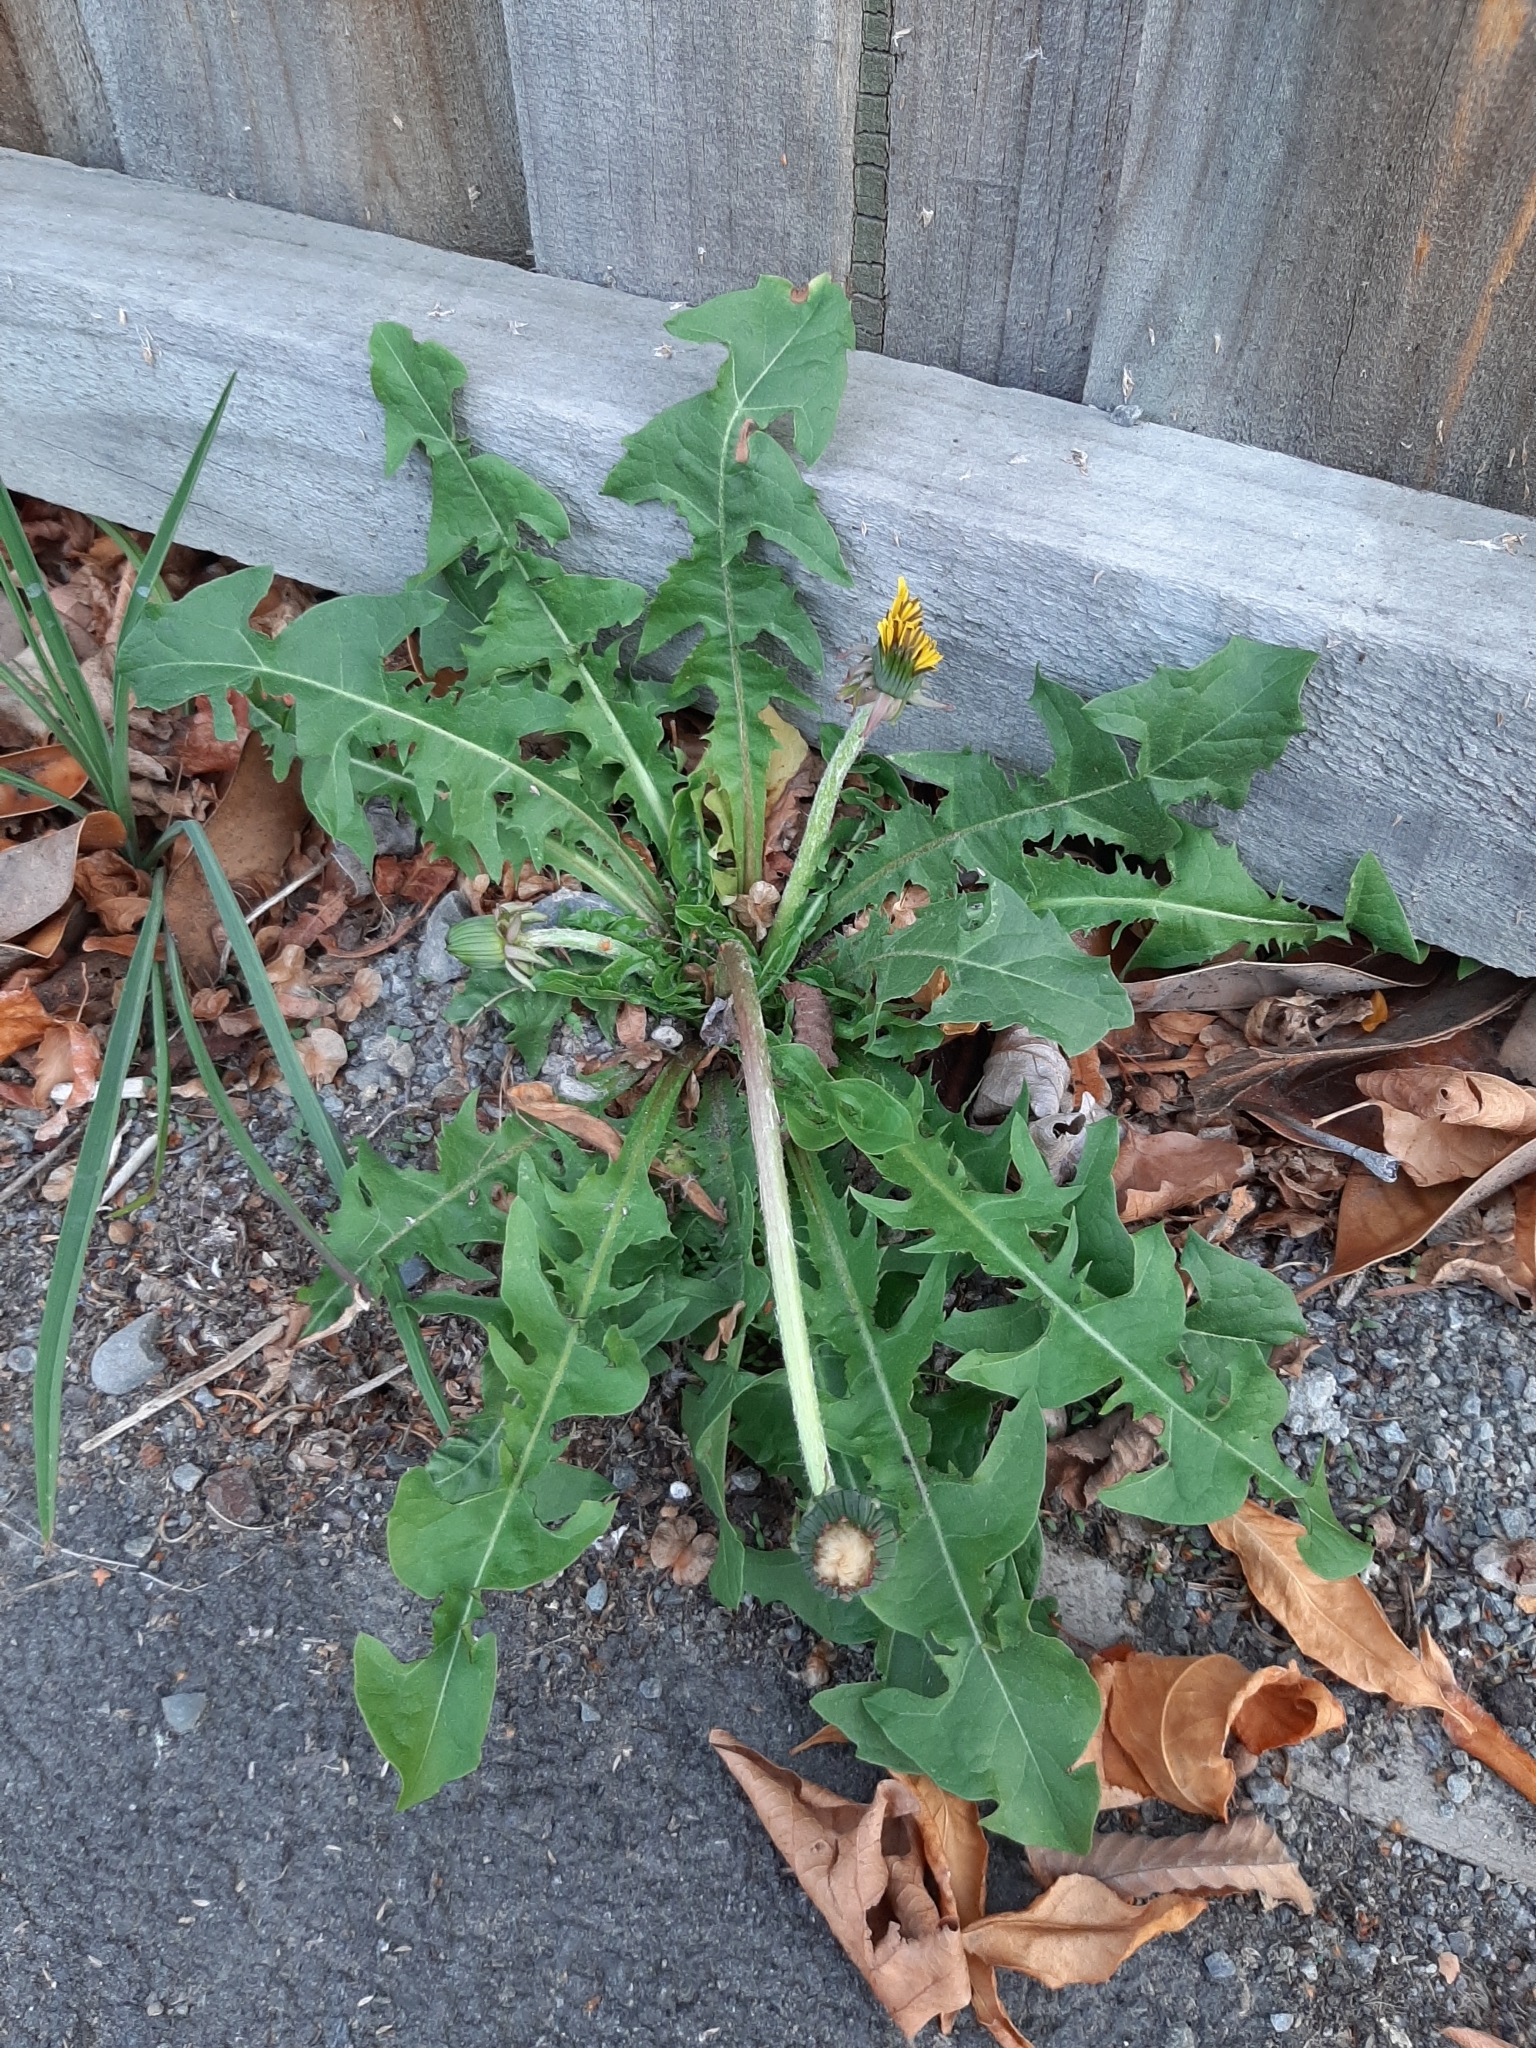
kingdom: Plantae
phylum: Tracheophyta
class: Magnoliopsida
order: Asterales
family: Asteraceae
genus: Taraxacum
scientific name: Taraxacum officinale
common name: Common dandelion
